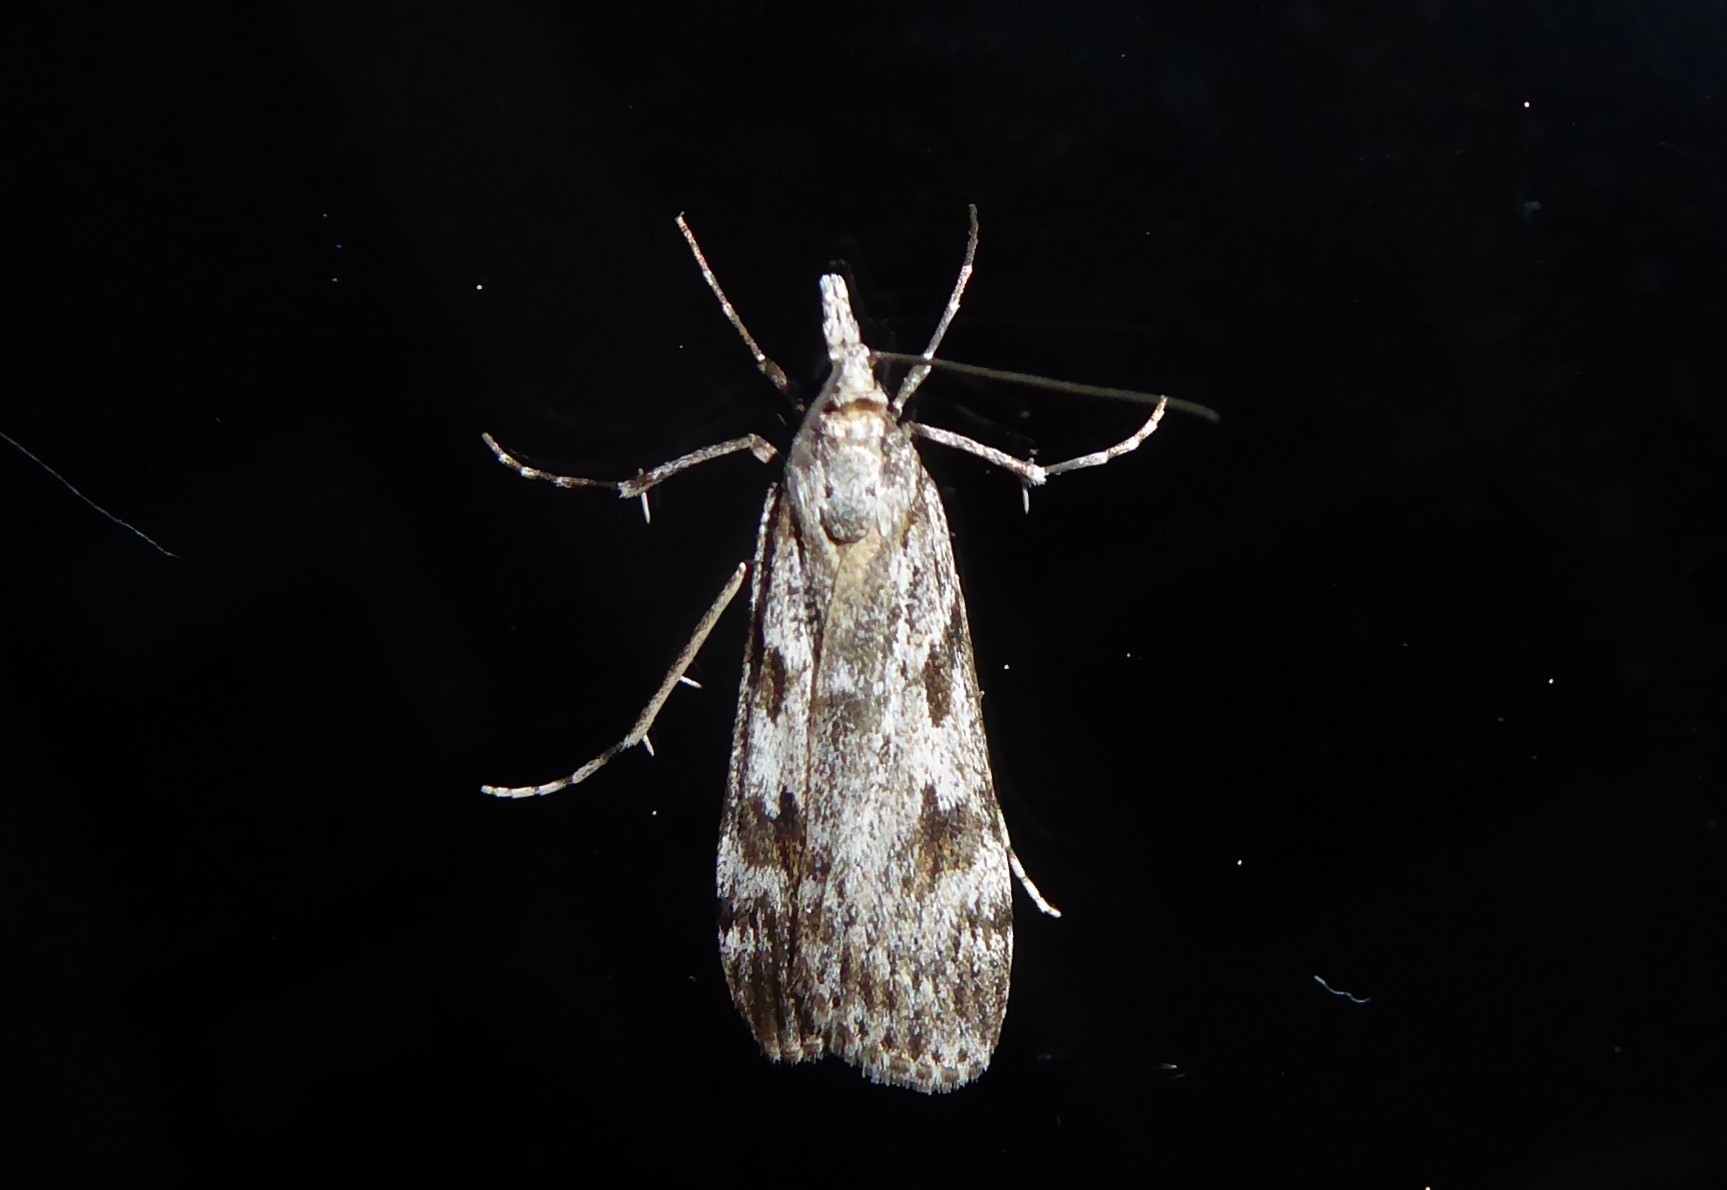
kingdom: Animalia
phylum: Arthropoda
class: Insecta
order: Lepidoptera
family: Crambidae
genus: Scoparia
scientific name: Scoparia halopis
